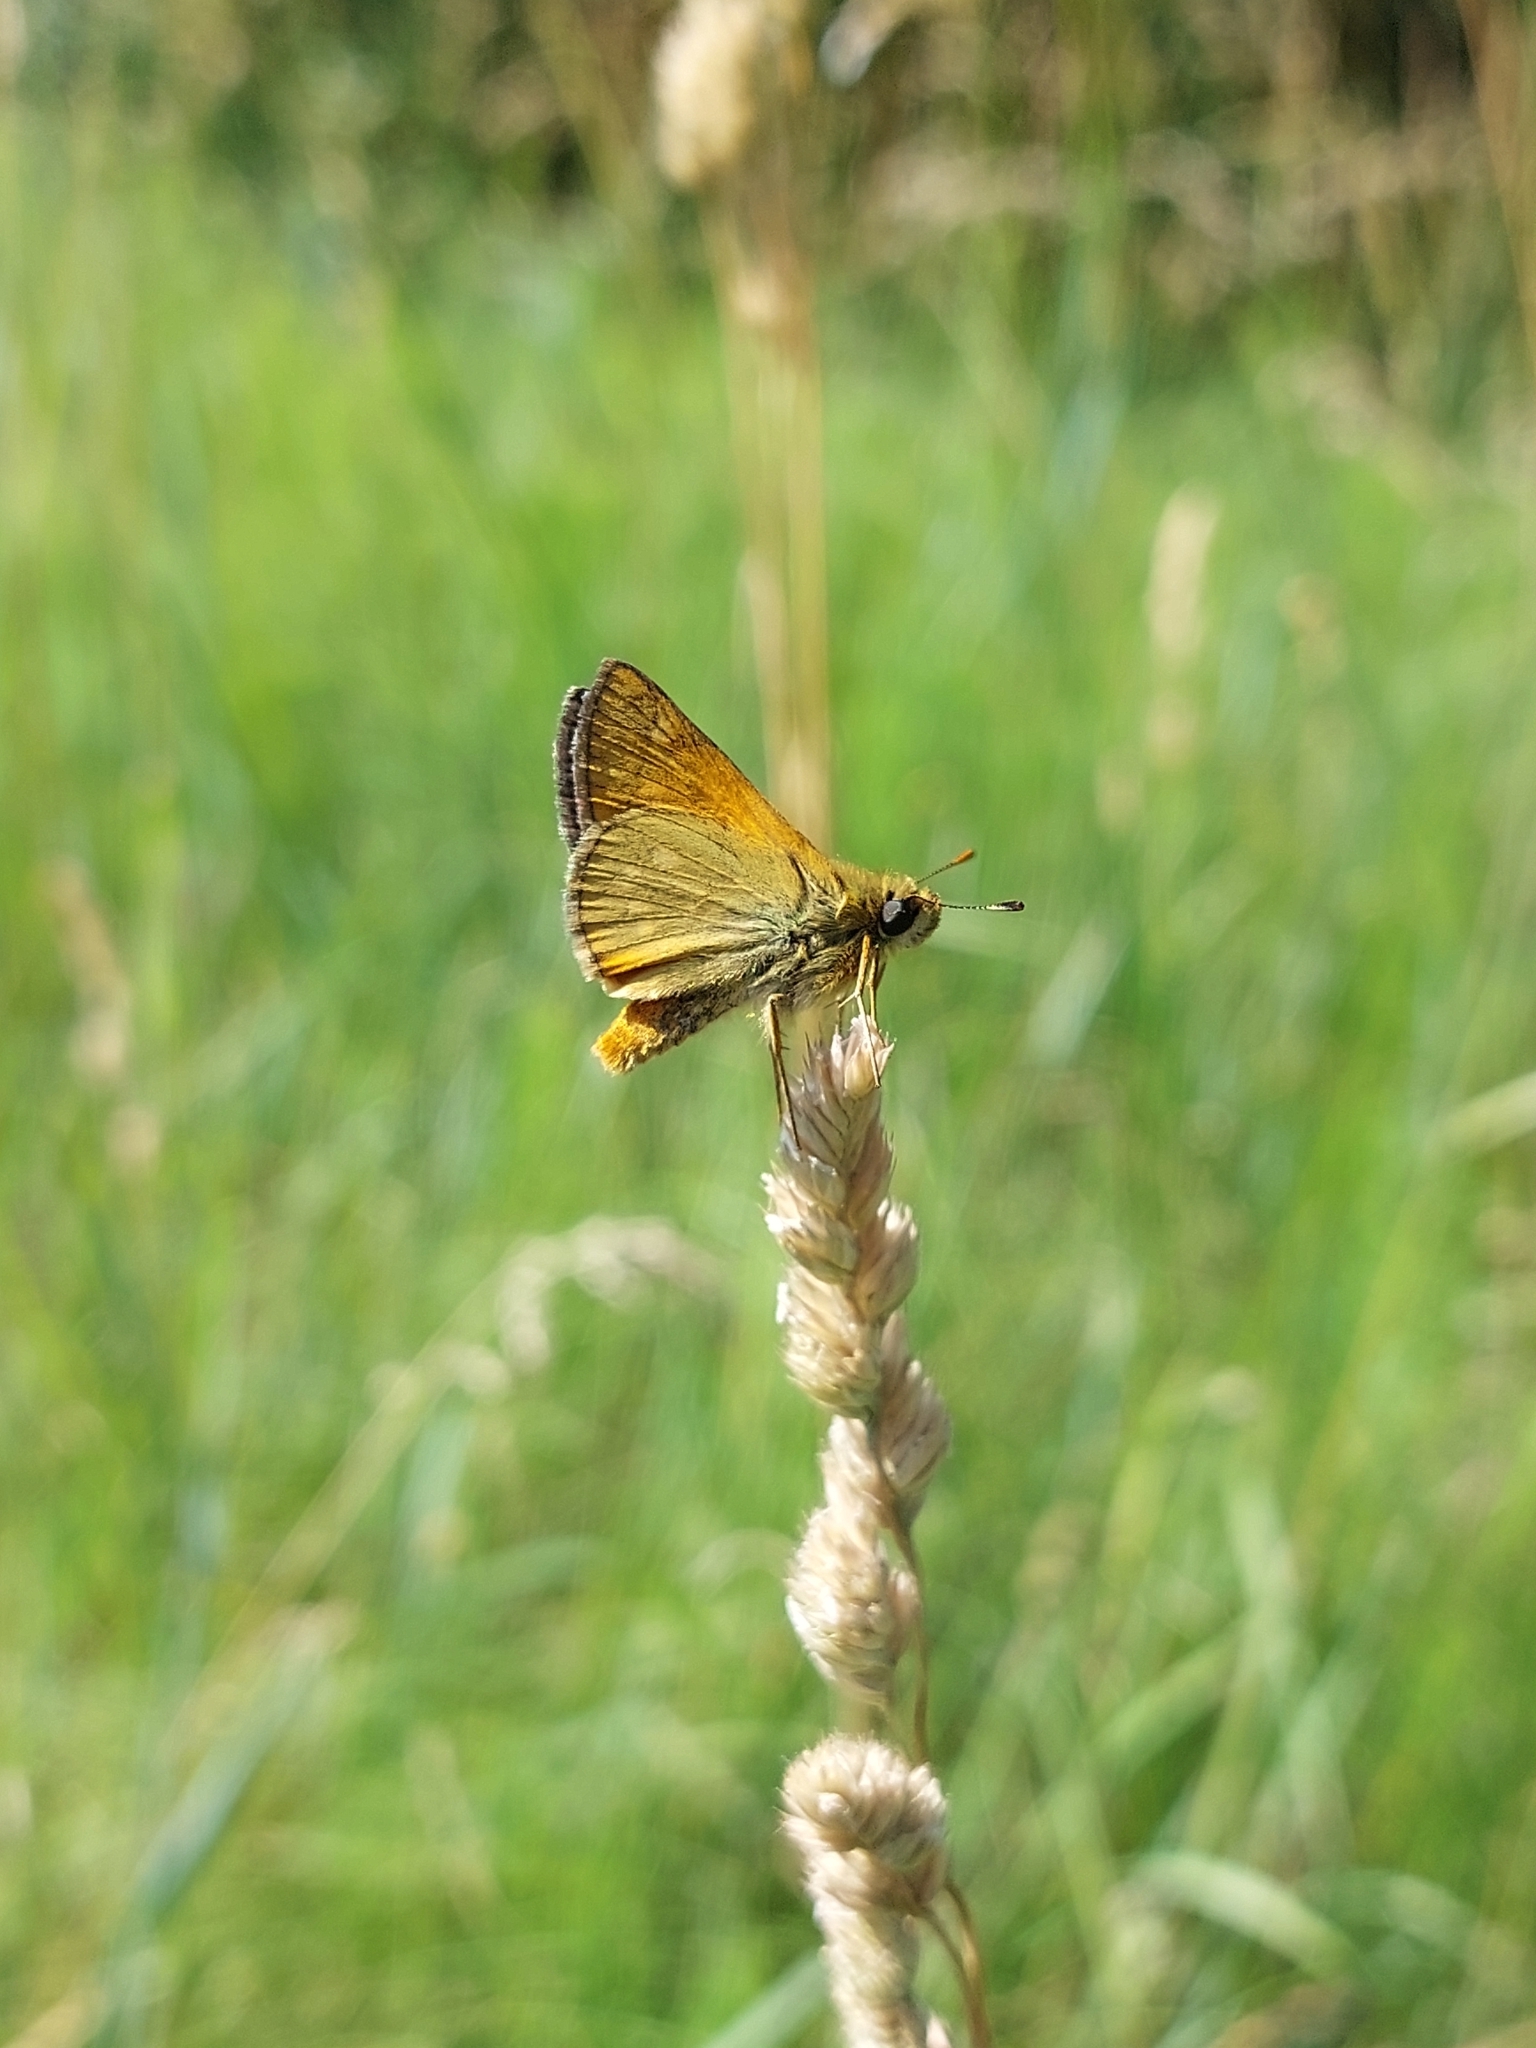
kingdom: Animalia
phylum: Arthropoda
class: Insecta
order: Lepidoptera
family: Hesperiidae
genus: Ochlodes
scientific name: Ochlodes venata
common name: Large skipper
